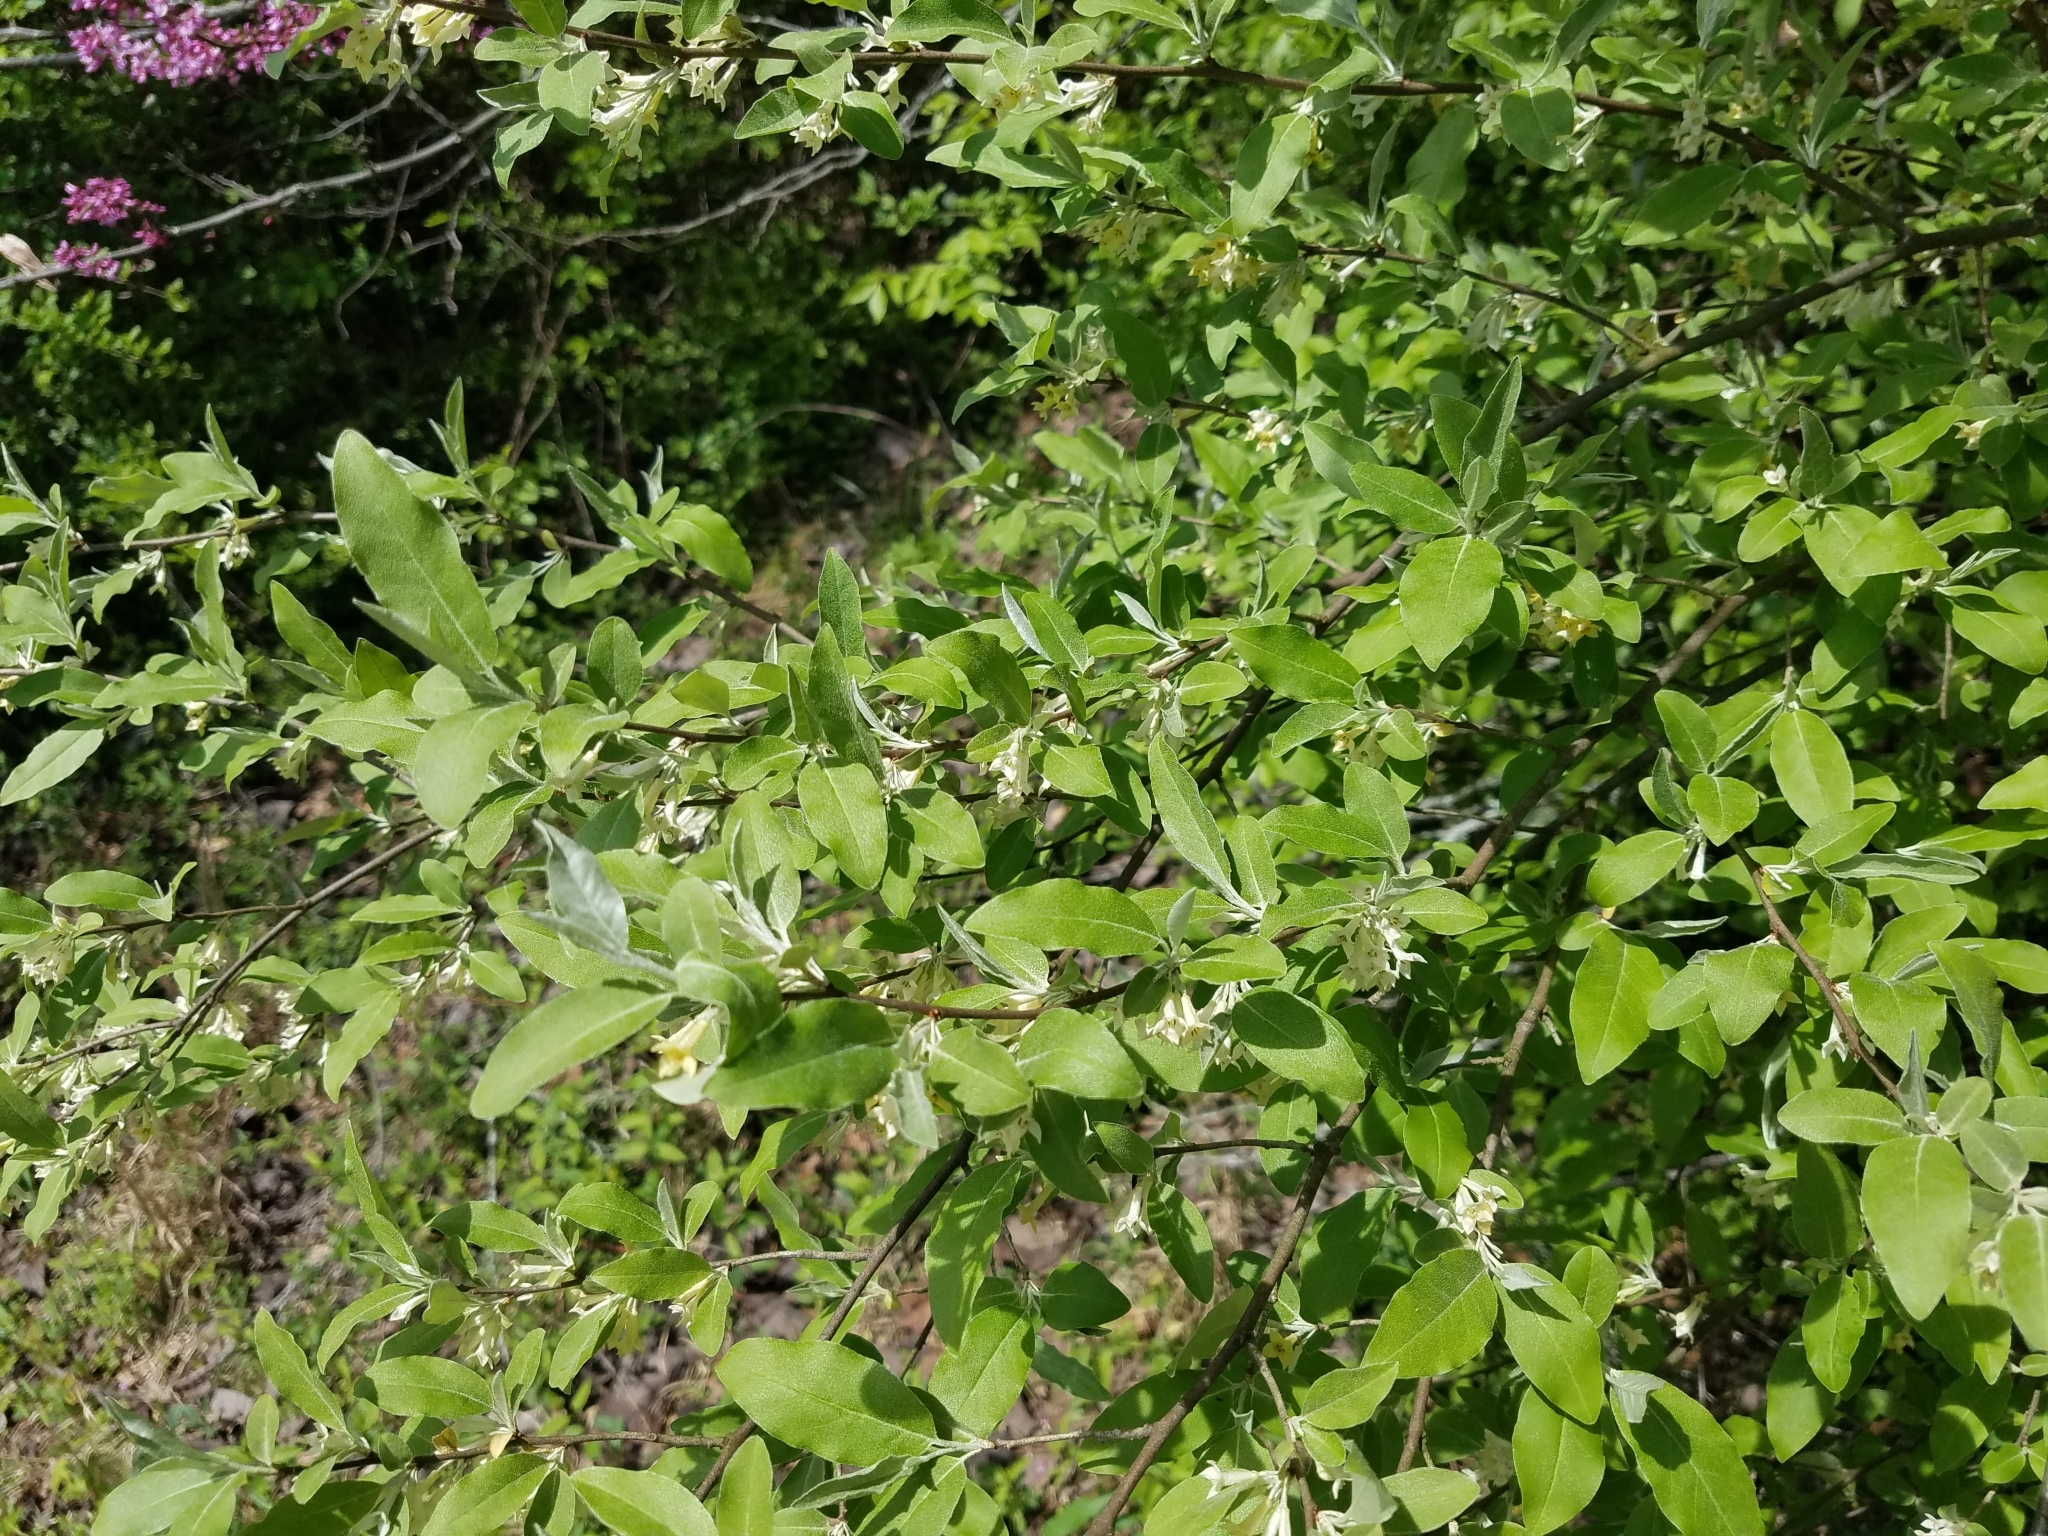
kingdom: Plantae
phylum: Tracheophyta
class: Magnoliopsida
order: Rosales
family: Elaeagnaceae
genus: Elaeagnus
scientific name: Elaeagnus umbellata
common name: Autumn olive
